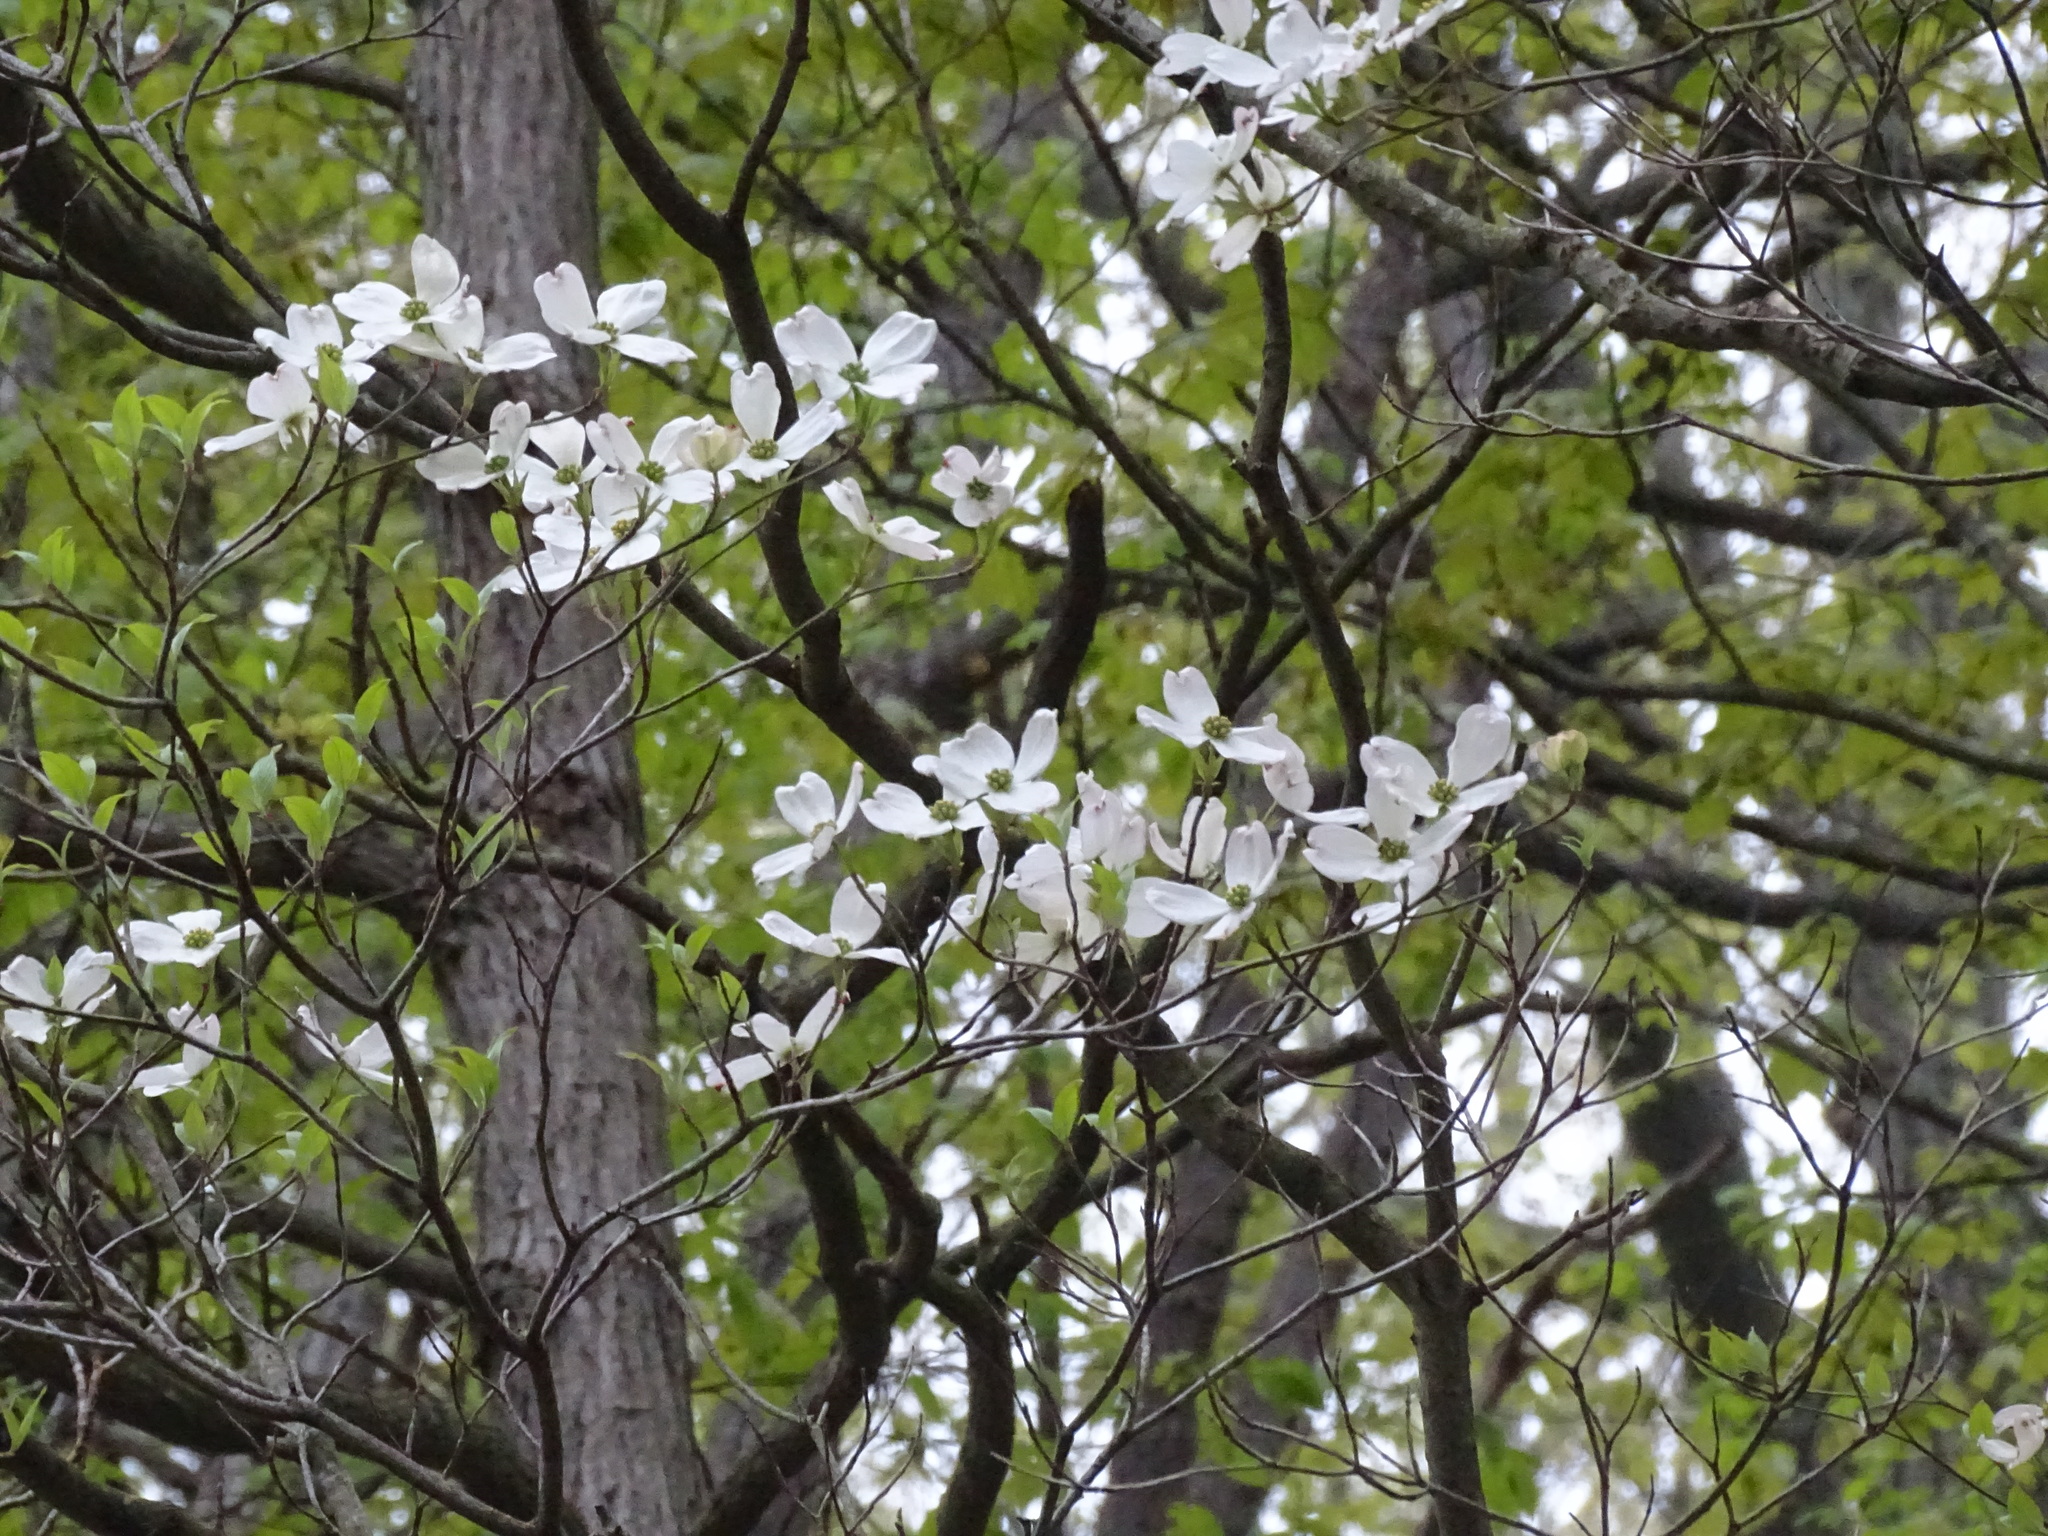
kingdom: Plantae
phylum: Tracheophyta
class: Magnoliopsida
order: Cornales
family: Cornaceae
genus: Cornus
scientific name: Cornus florida
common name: Flowering dogwood
